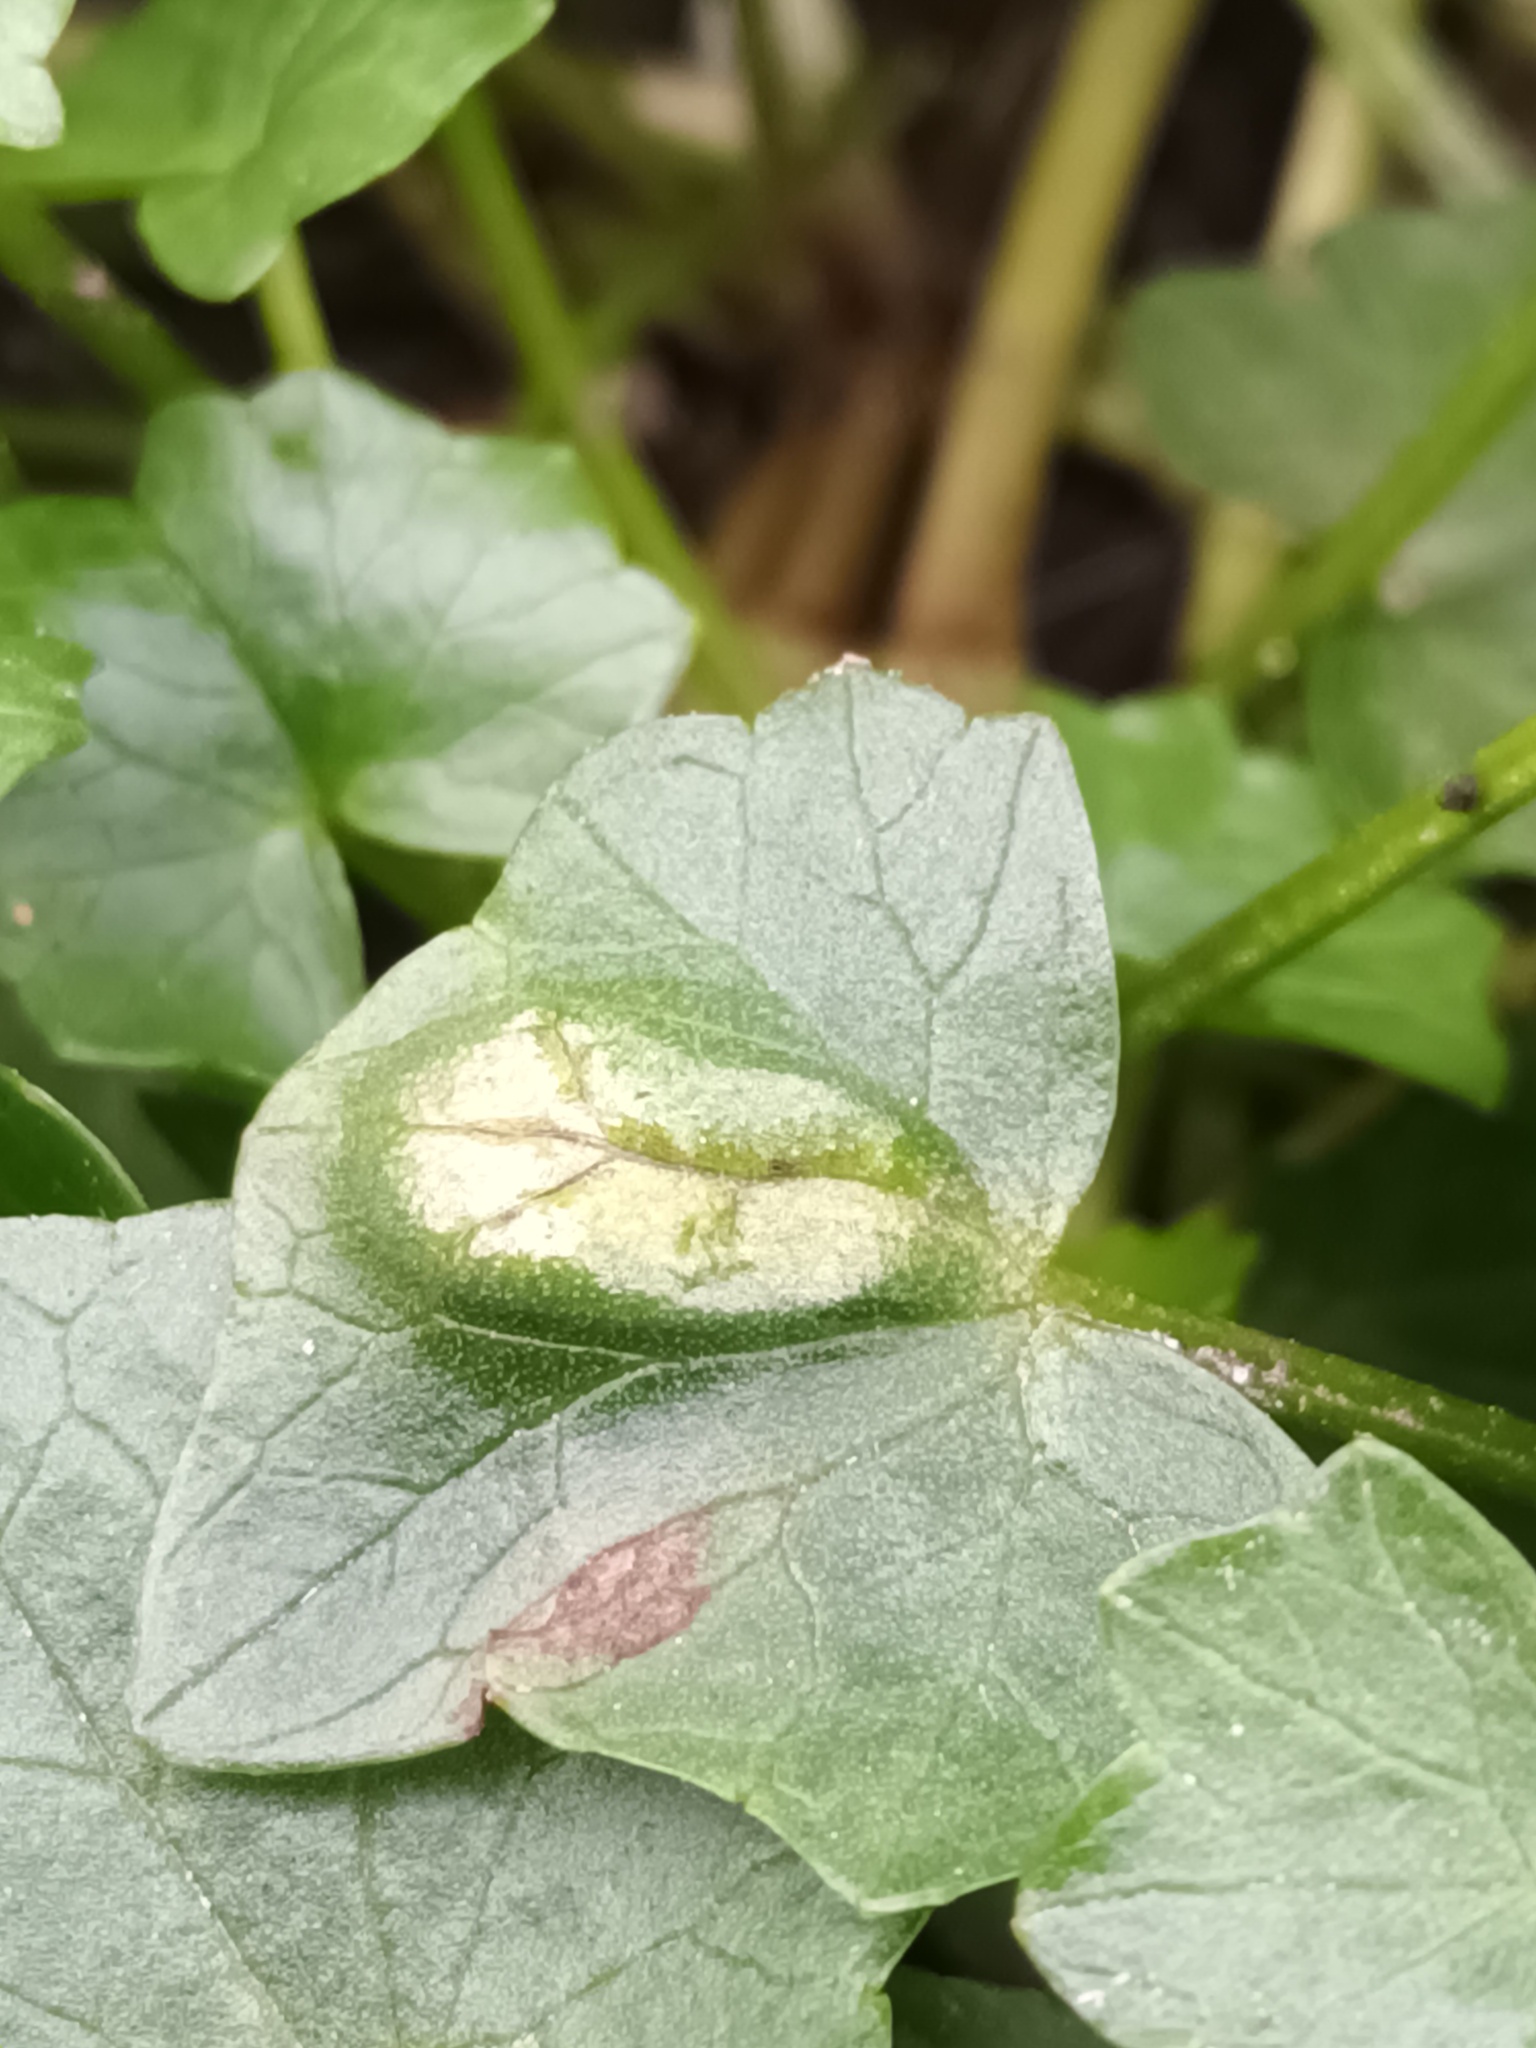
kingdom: Fungi
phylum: Basidiomycota
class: Ustilaginomycetes
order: Urocystidales
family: Urocystidaceae
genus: Urocystis
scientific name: Urocystis ficariae
